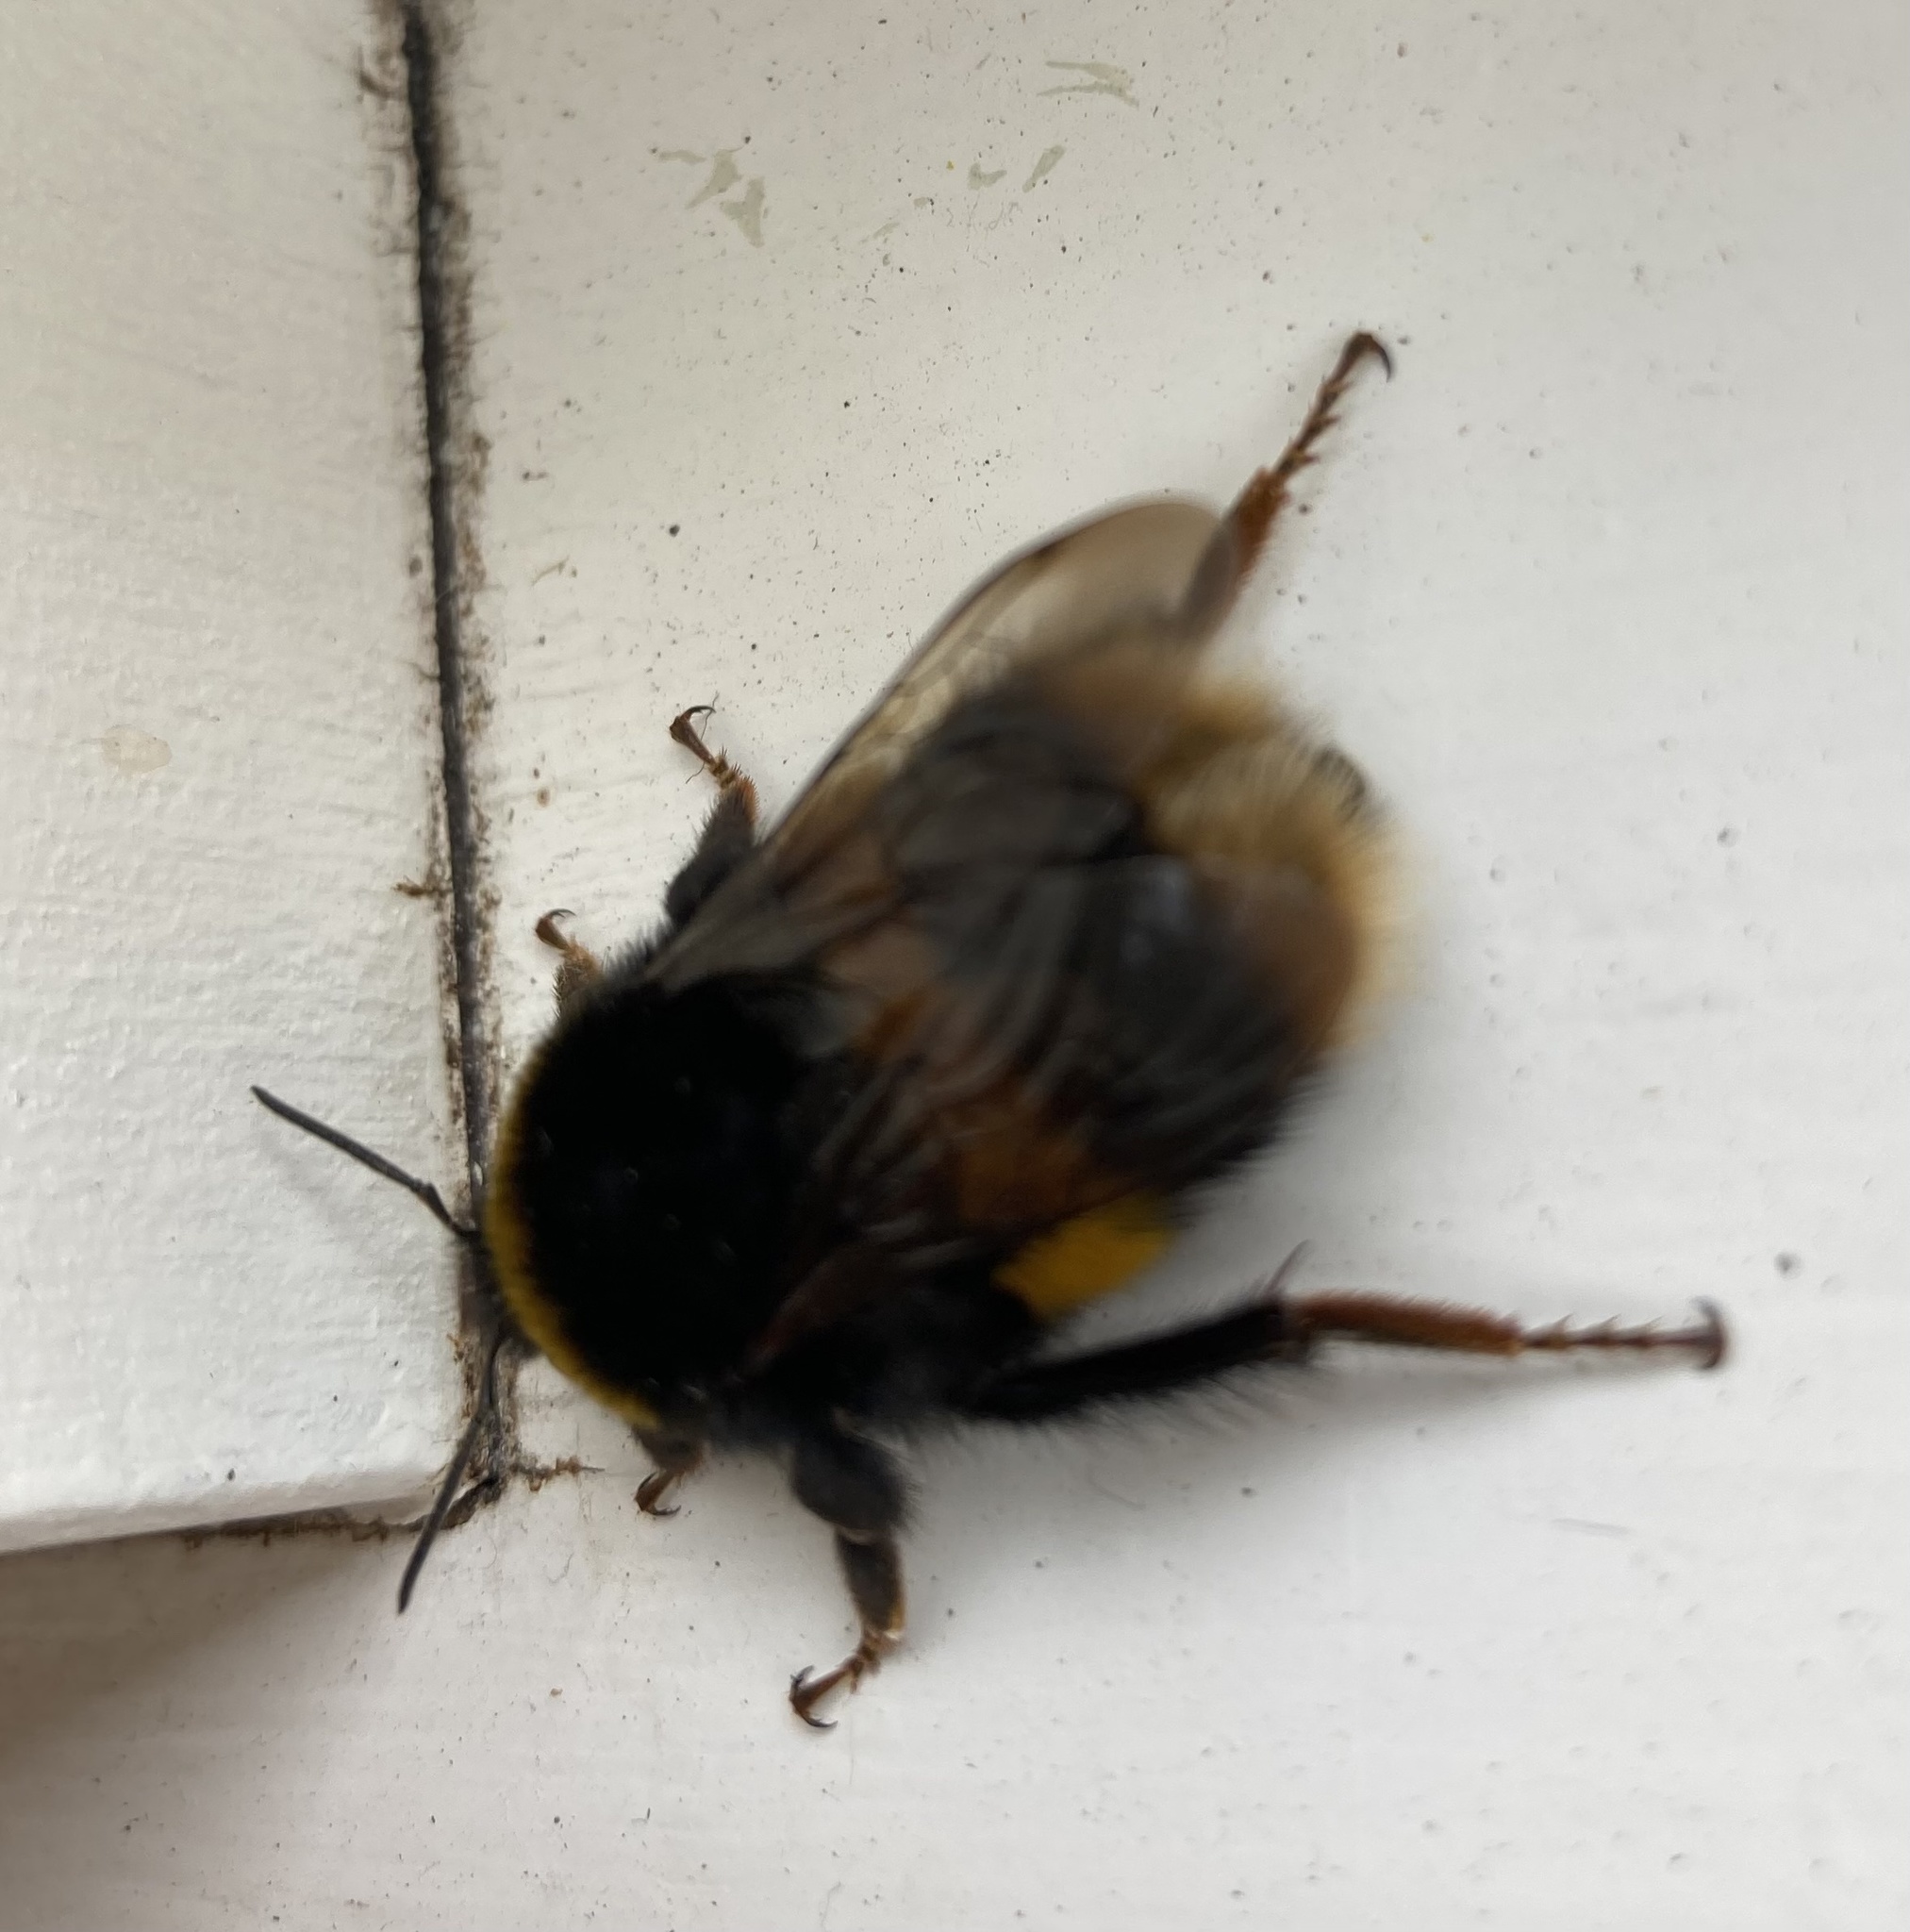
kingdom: Animalia
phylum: Arthropoda
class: Insecta
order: Hymenoptera
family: Apidae
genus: Bombus
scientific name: Bombus terrestris
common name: Buff-tailed bumblebee
